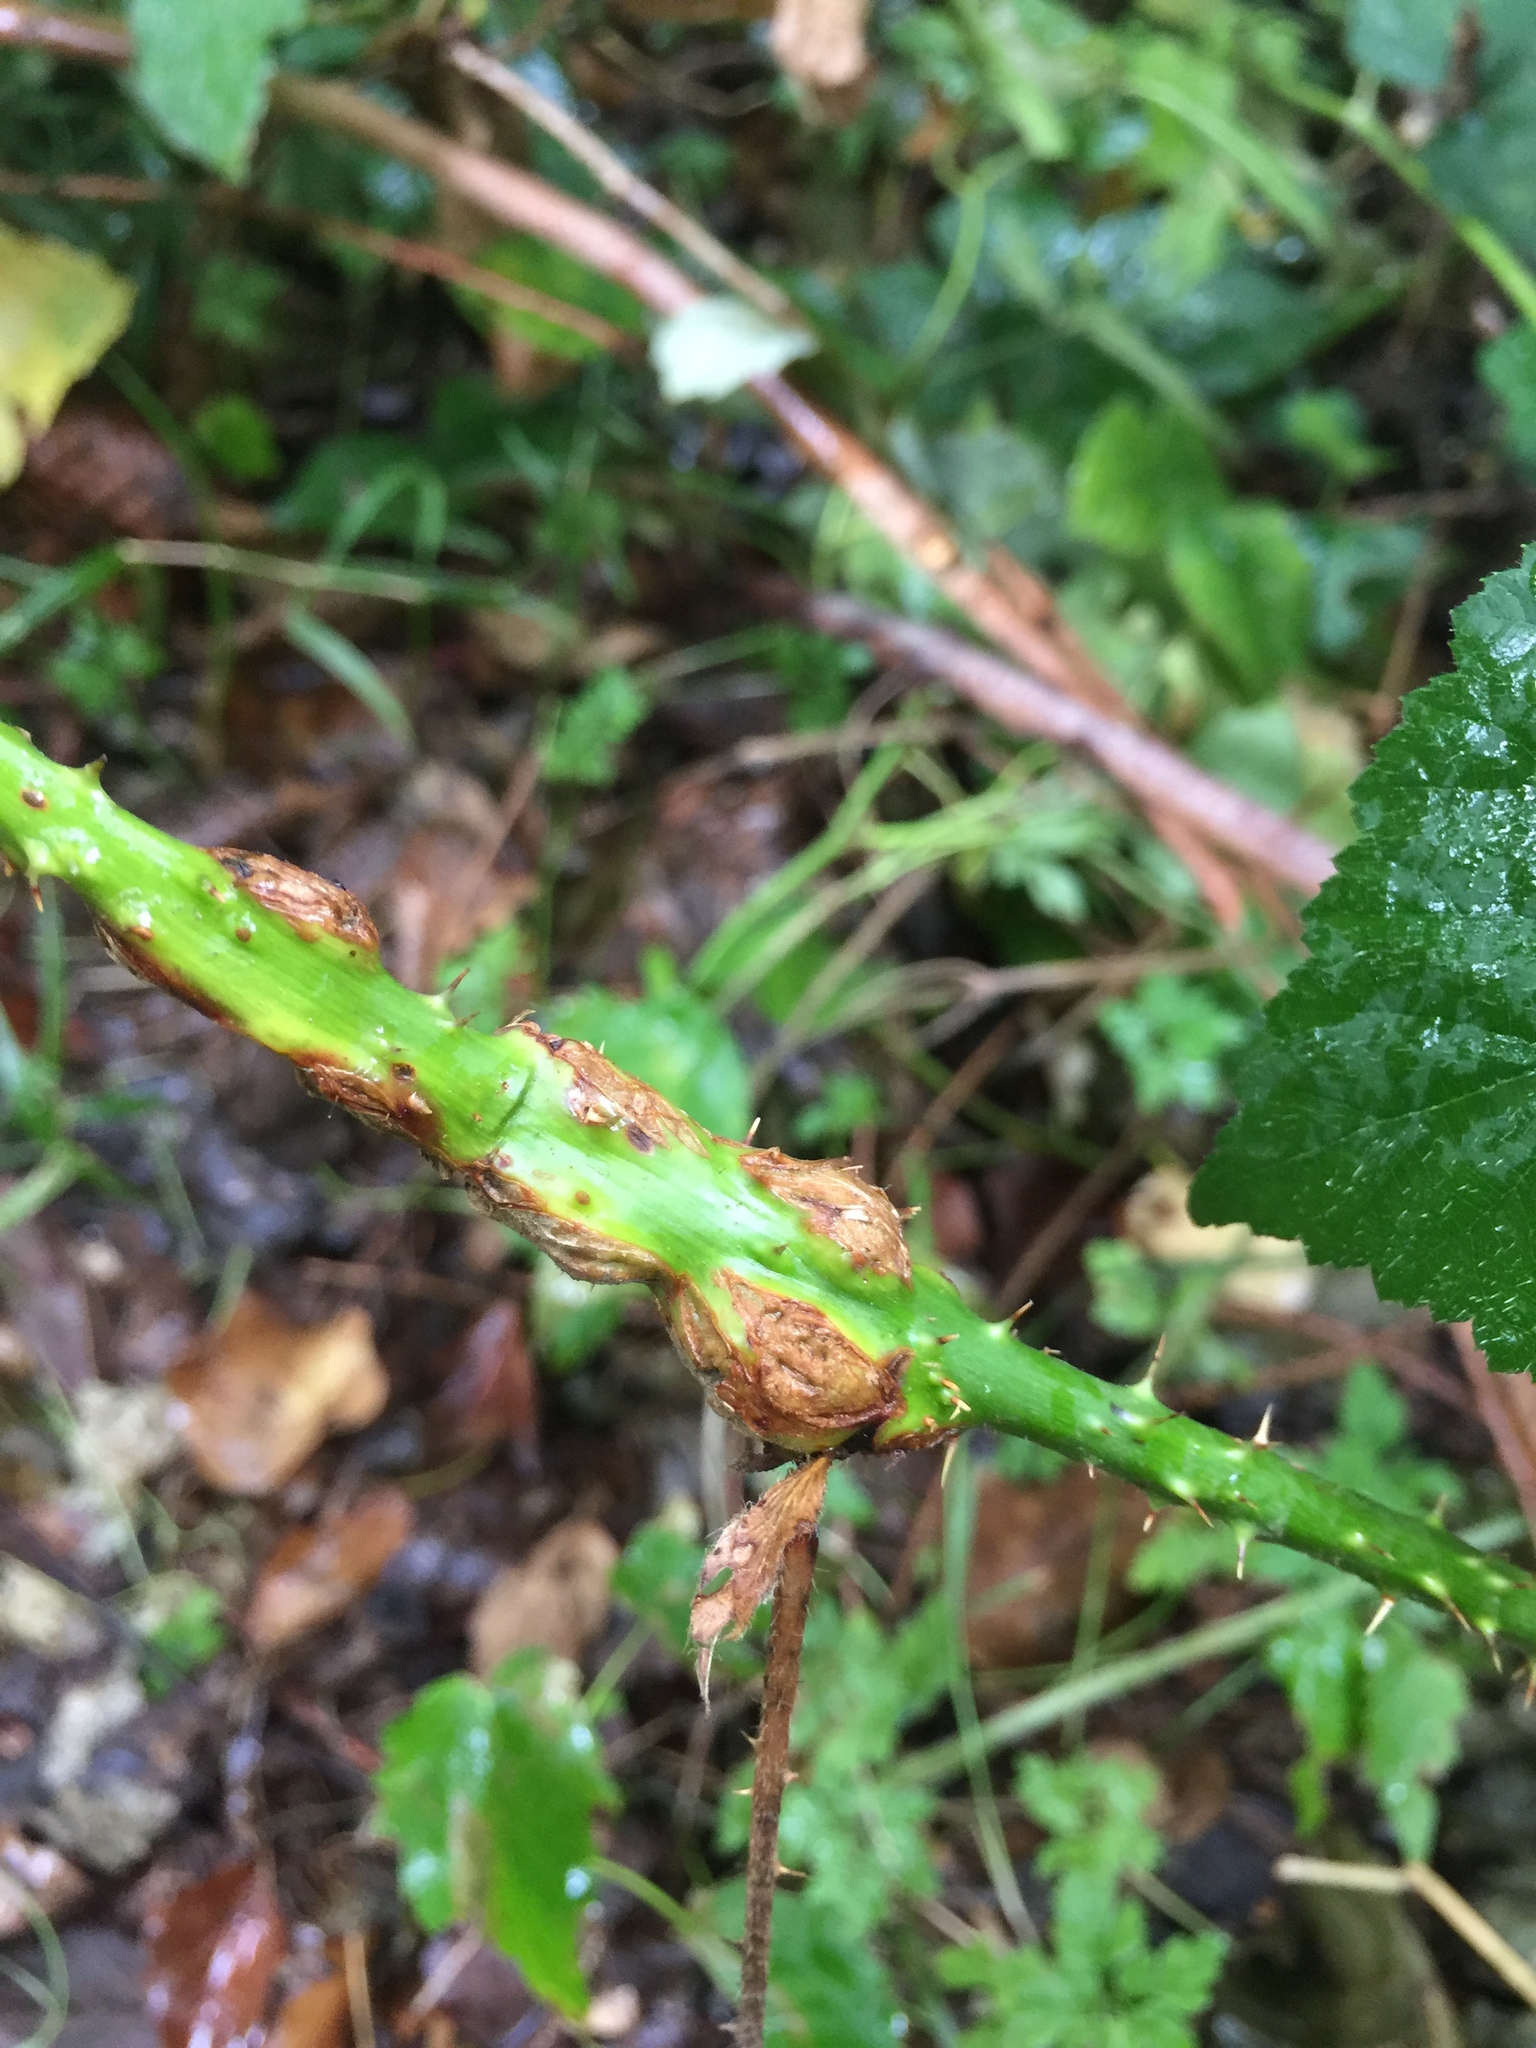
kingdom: Animalia
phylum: Arthropoda
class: Insecta
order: Diptera
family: Cecidomyiidae
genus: Lasioptera
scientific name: Lasioptera rubi
